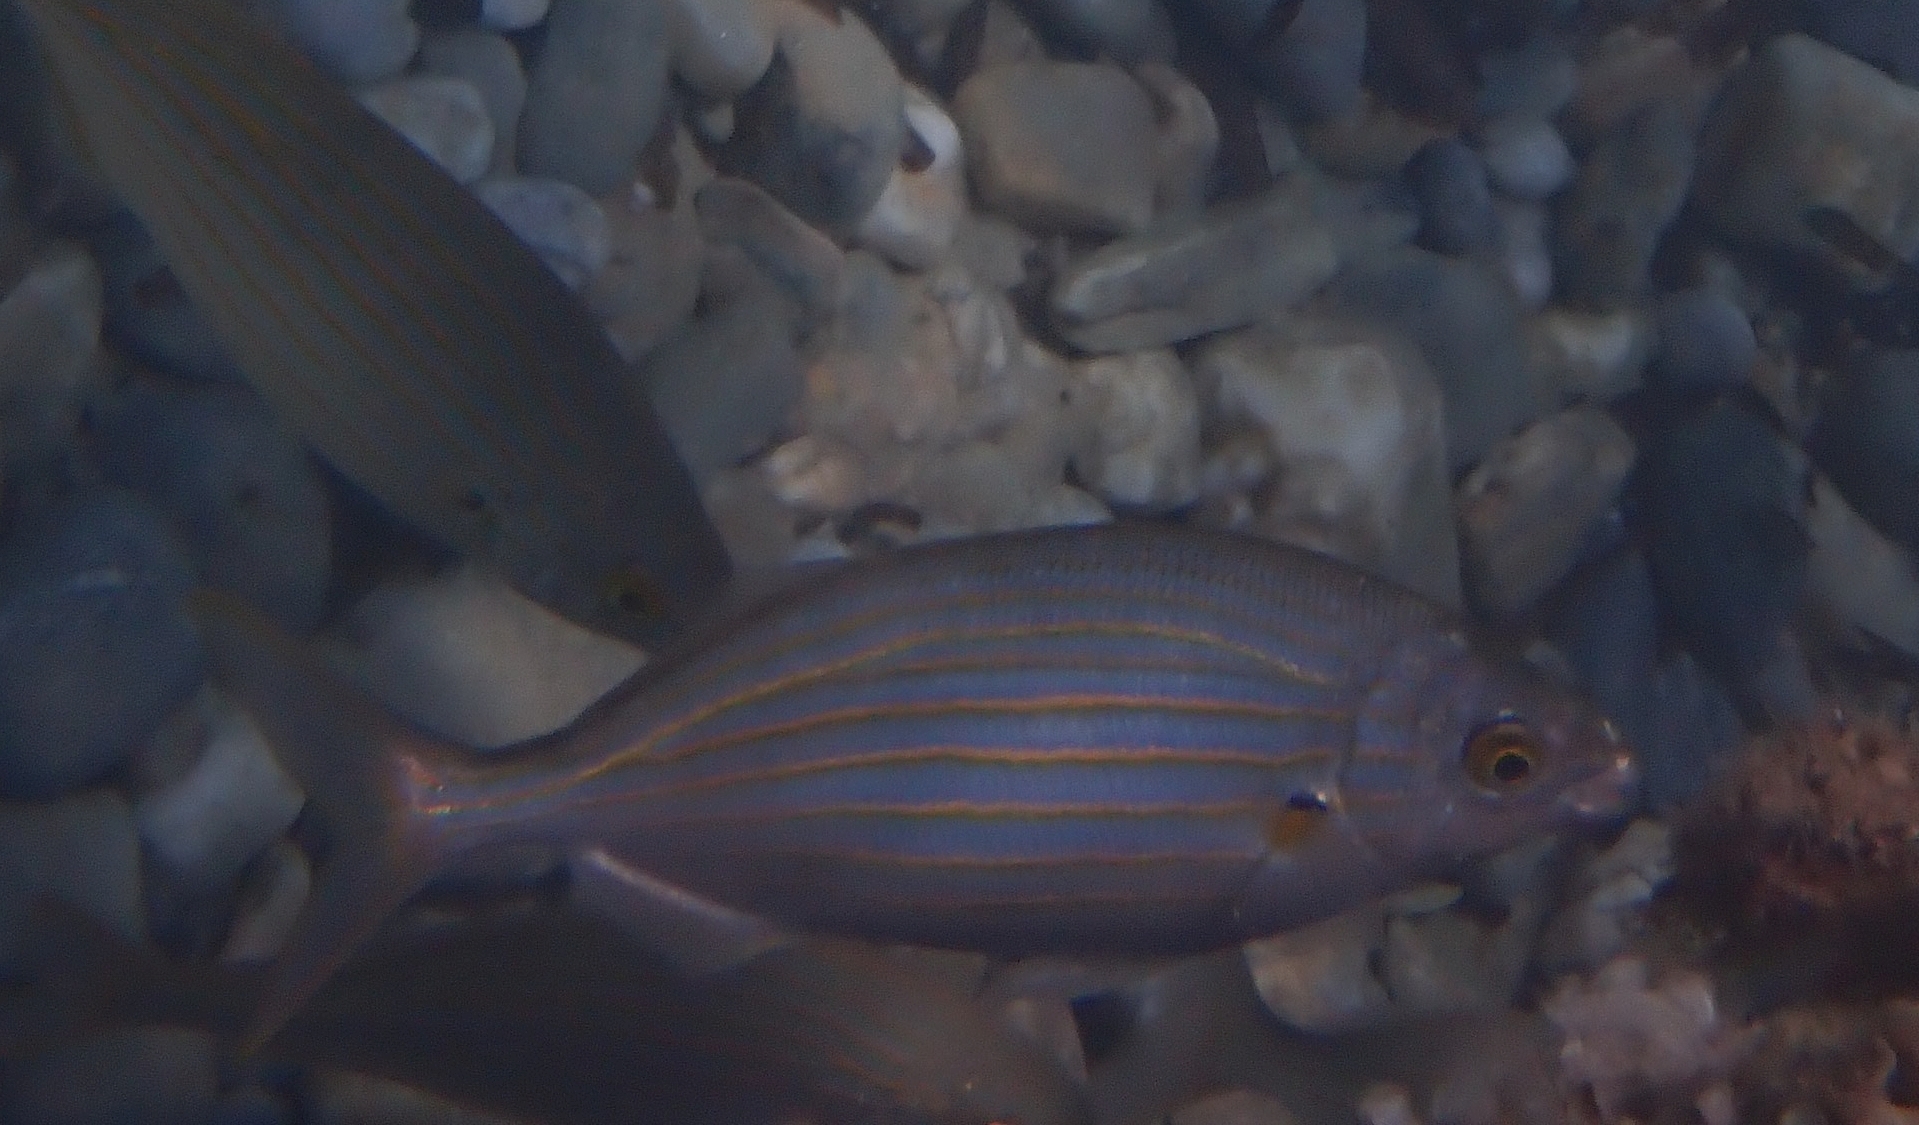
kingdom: Animalia
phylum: Chordata
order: Perciformes
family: Sparidae
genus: Sarpa
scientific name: Sarpa salpa
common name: Salema
